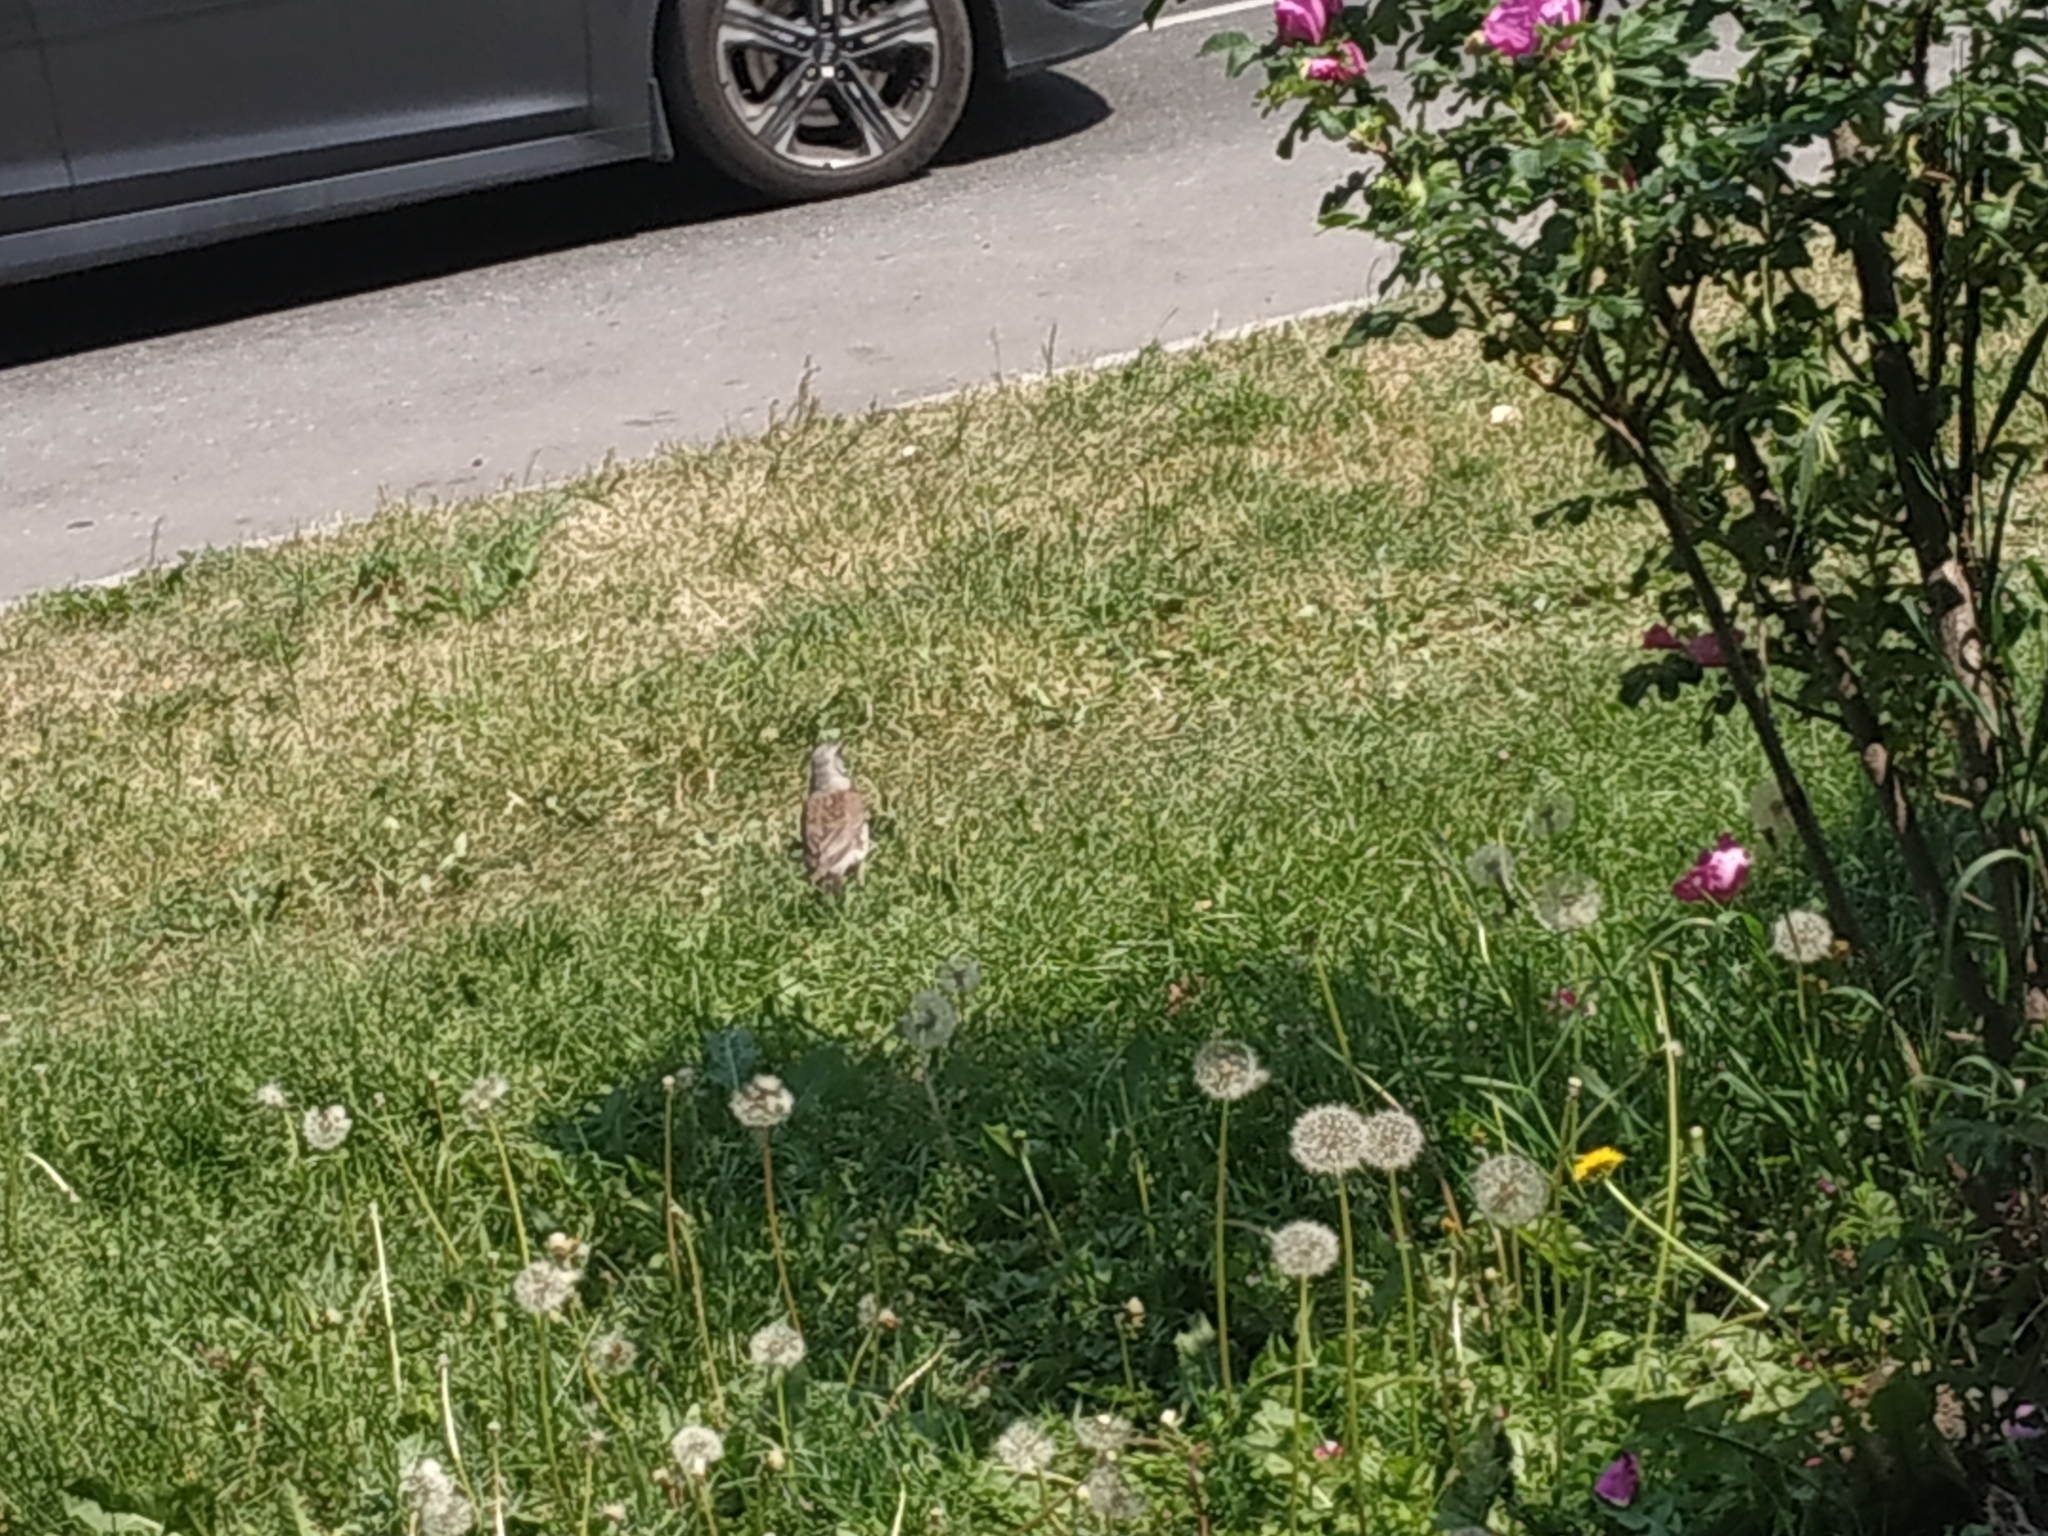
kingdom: Animalia
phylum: Chordata
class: Aves
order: Passeriformes
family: Turdidae
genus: Turdus
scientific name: Turdus pilaris
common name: Fieldfare
